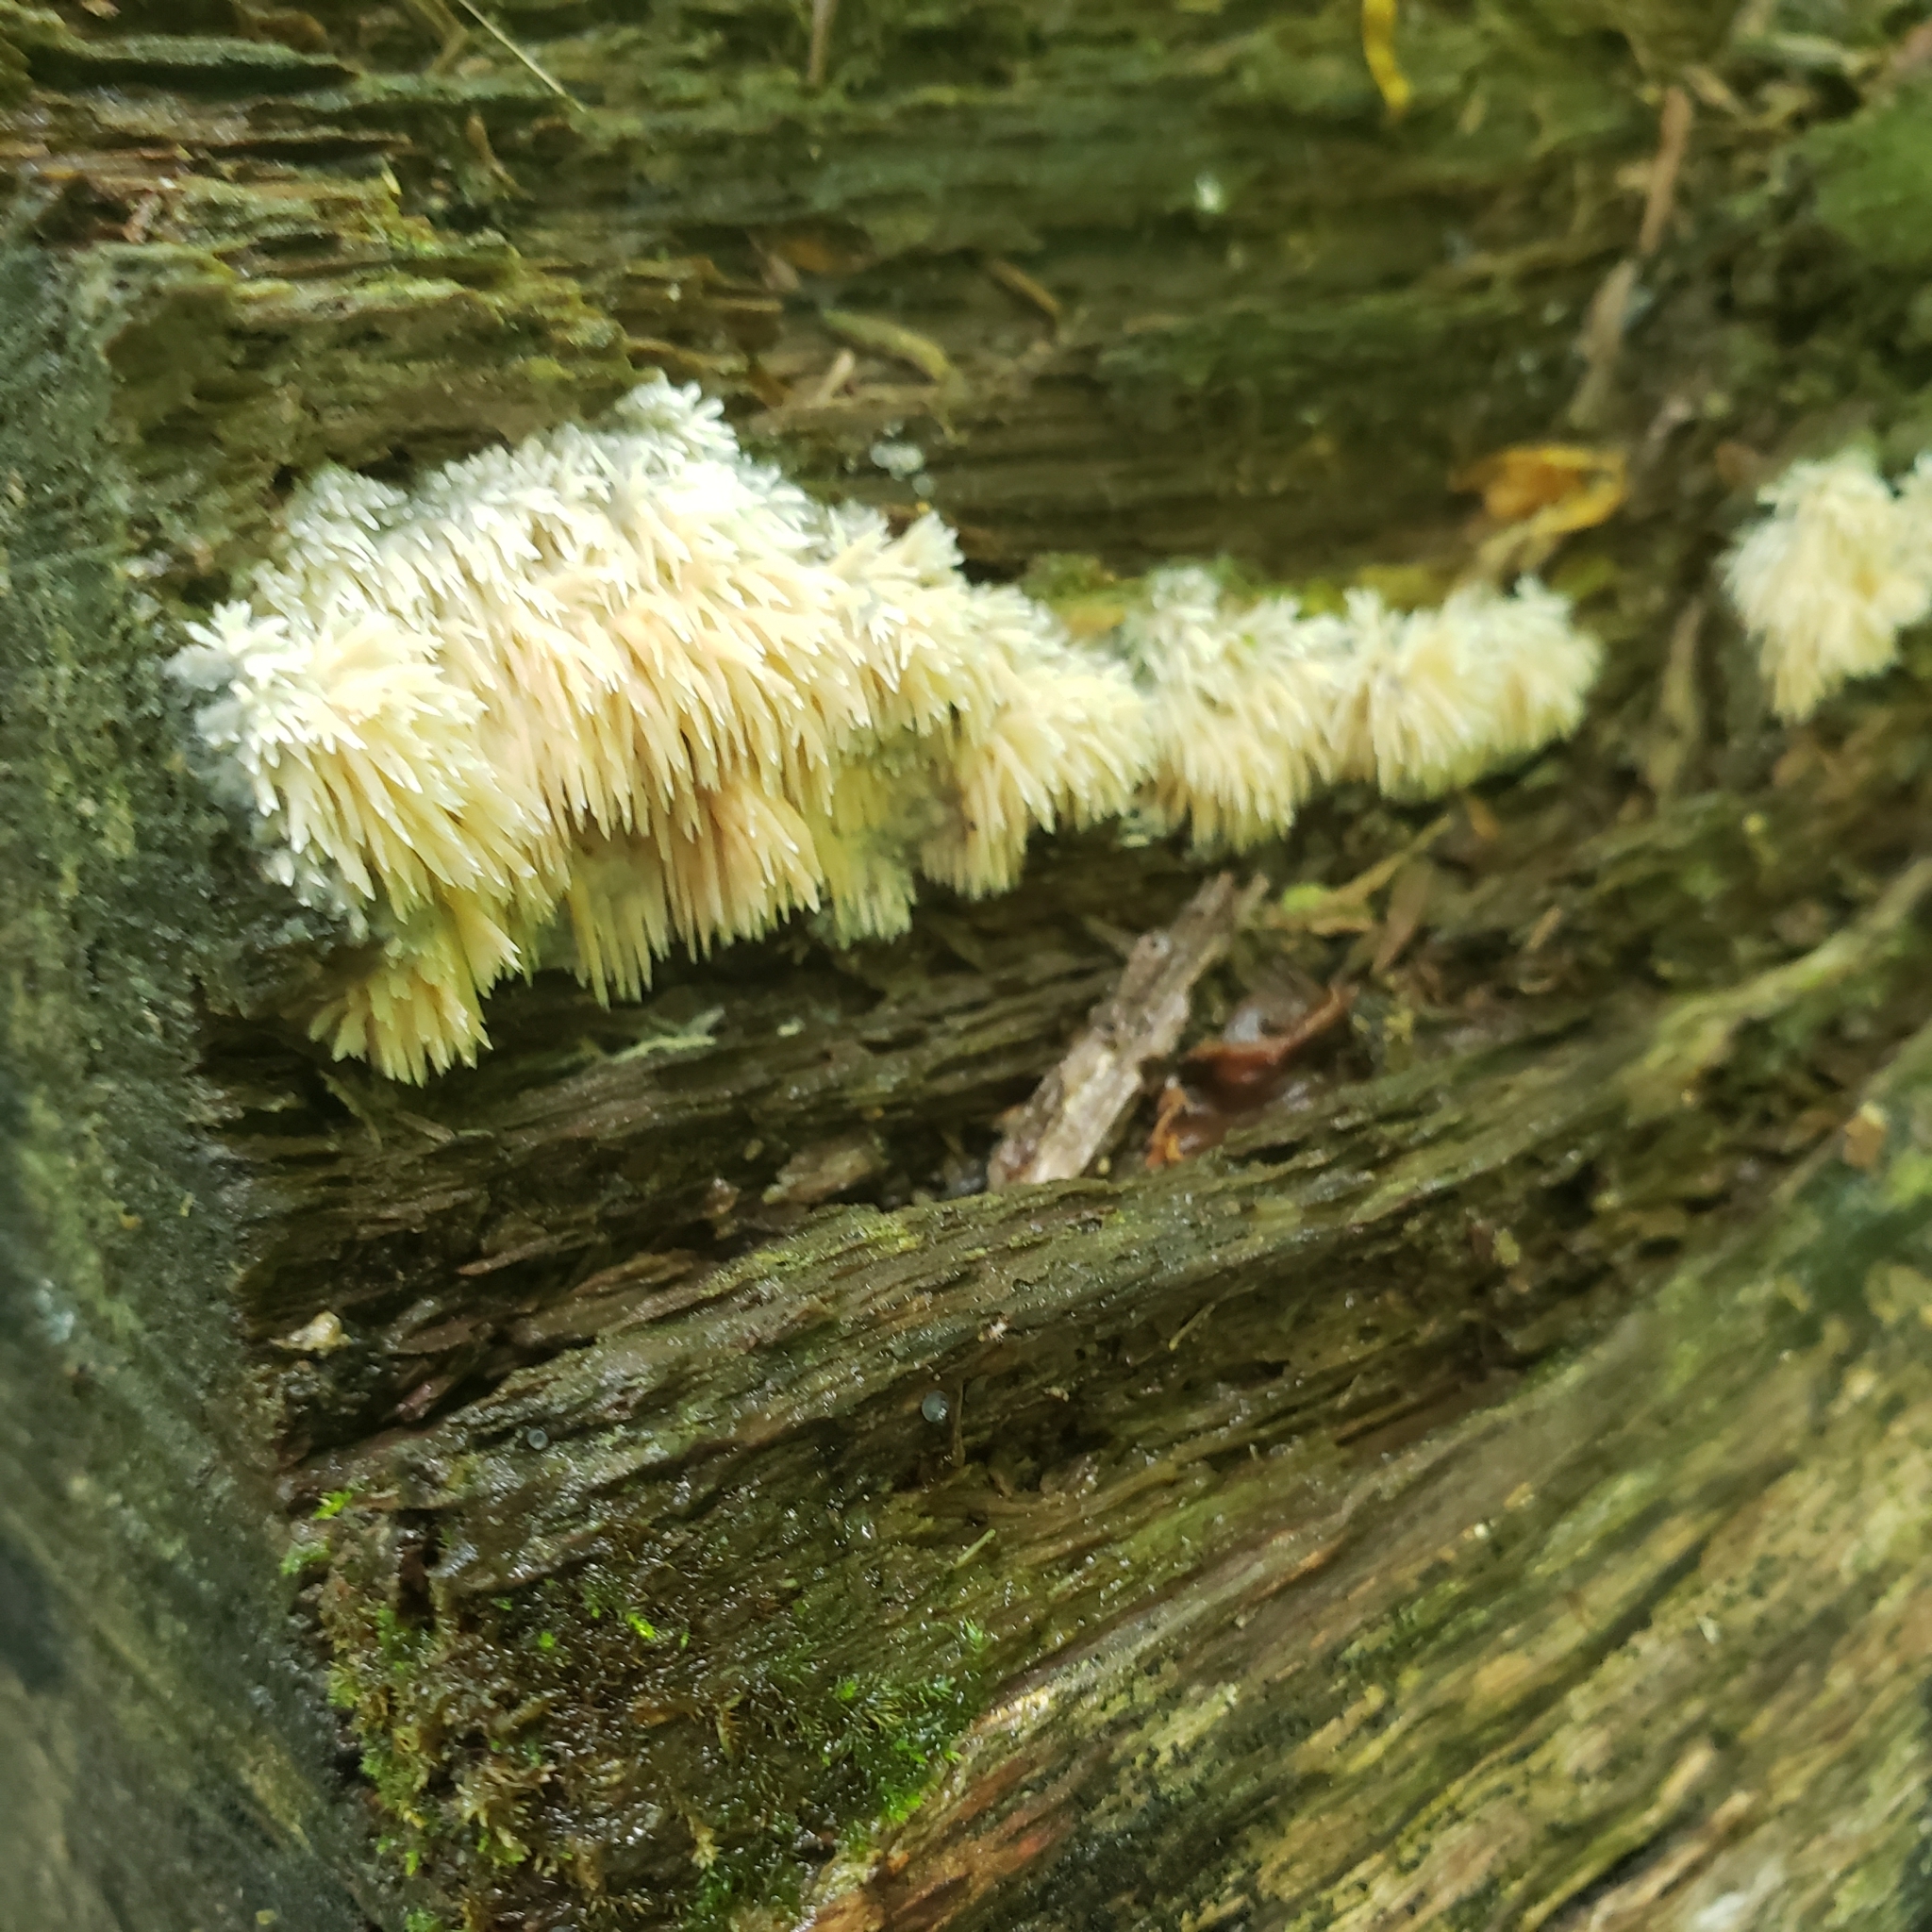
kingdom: Fungi
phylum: Basidiomycota
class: Agaricomycetes
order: Agaricales
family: Radulomycetaceae
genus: Radulomyces
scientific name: Radulomyces copelandii
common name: Asian beauty
